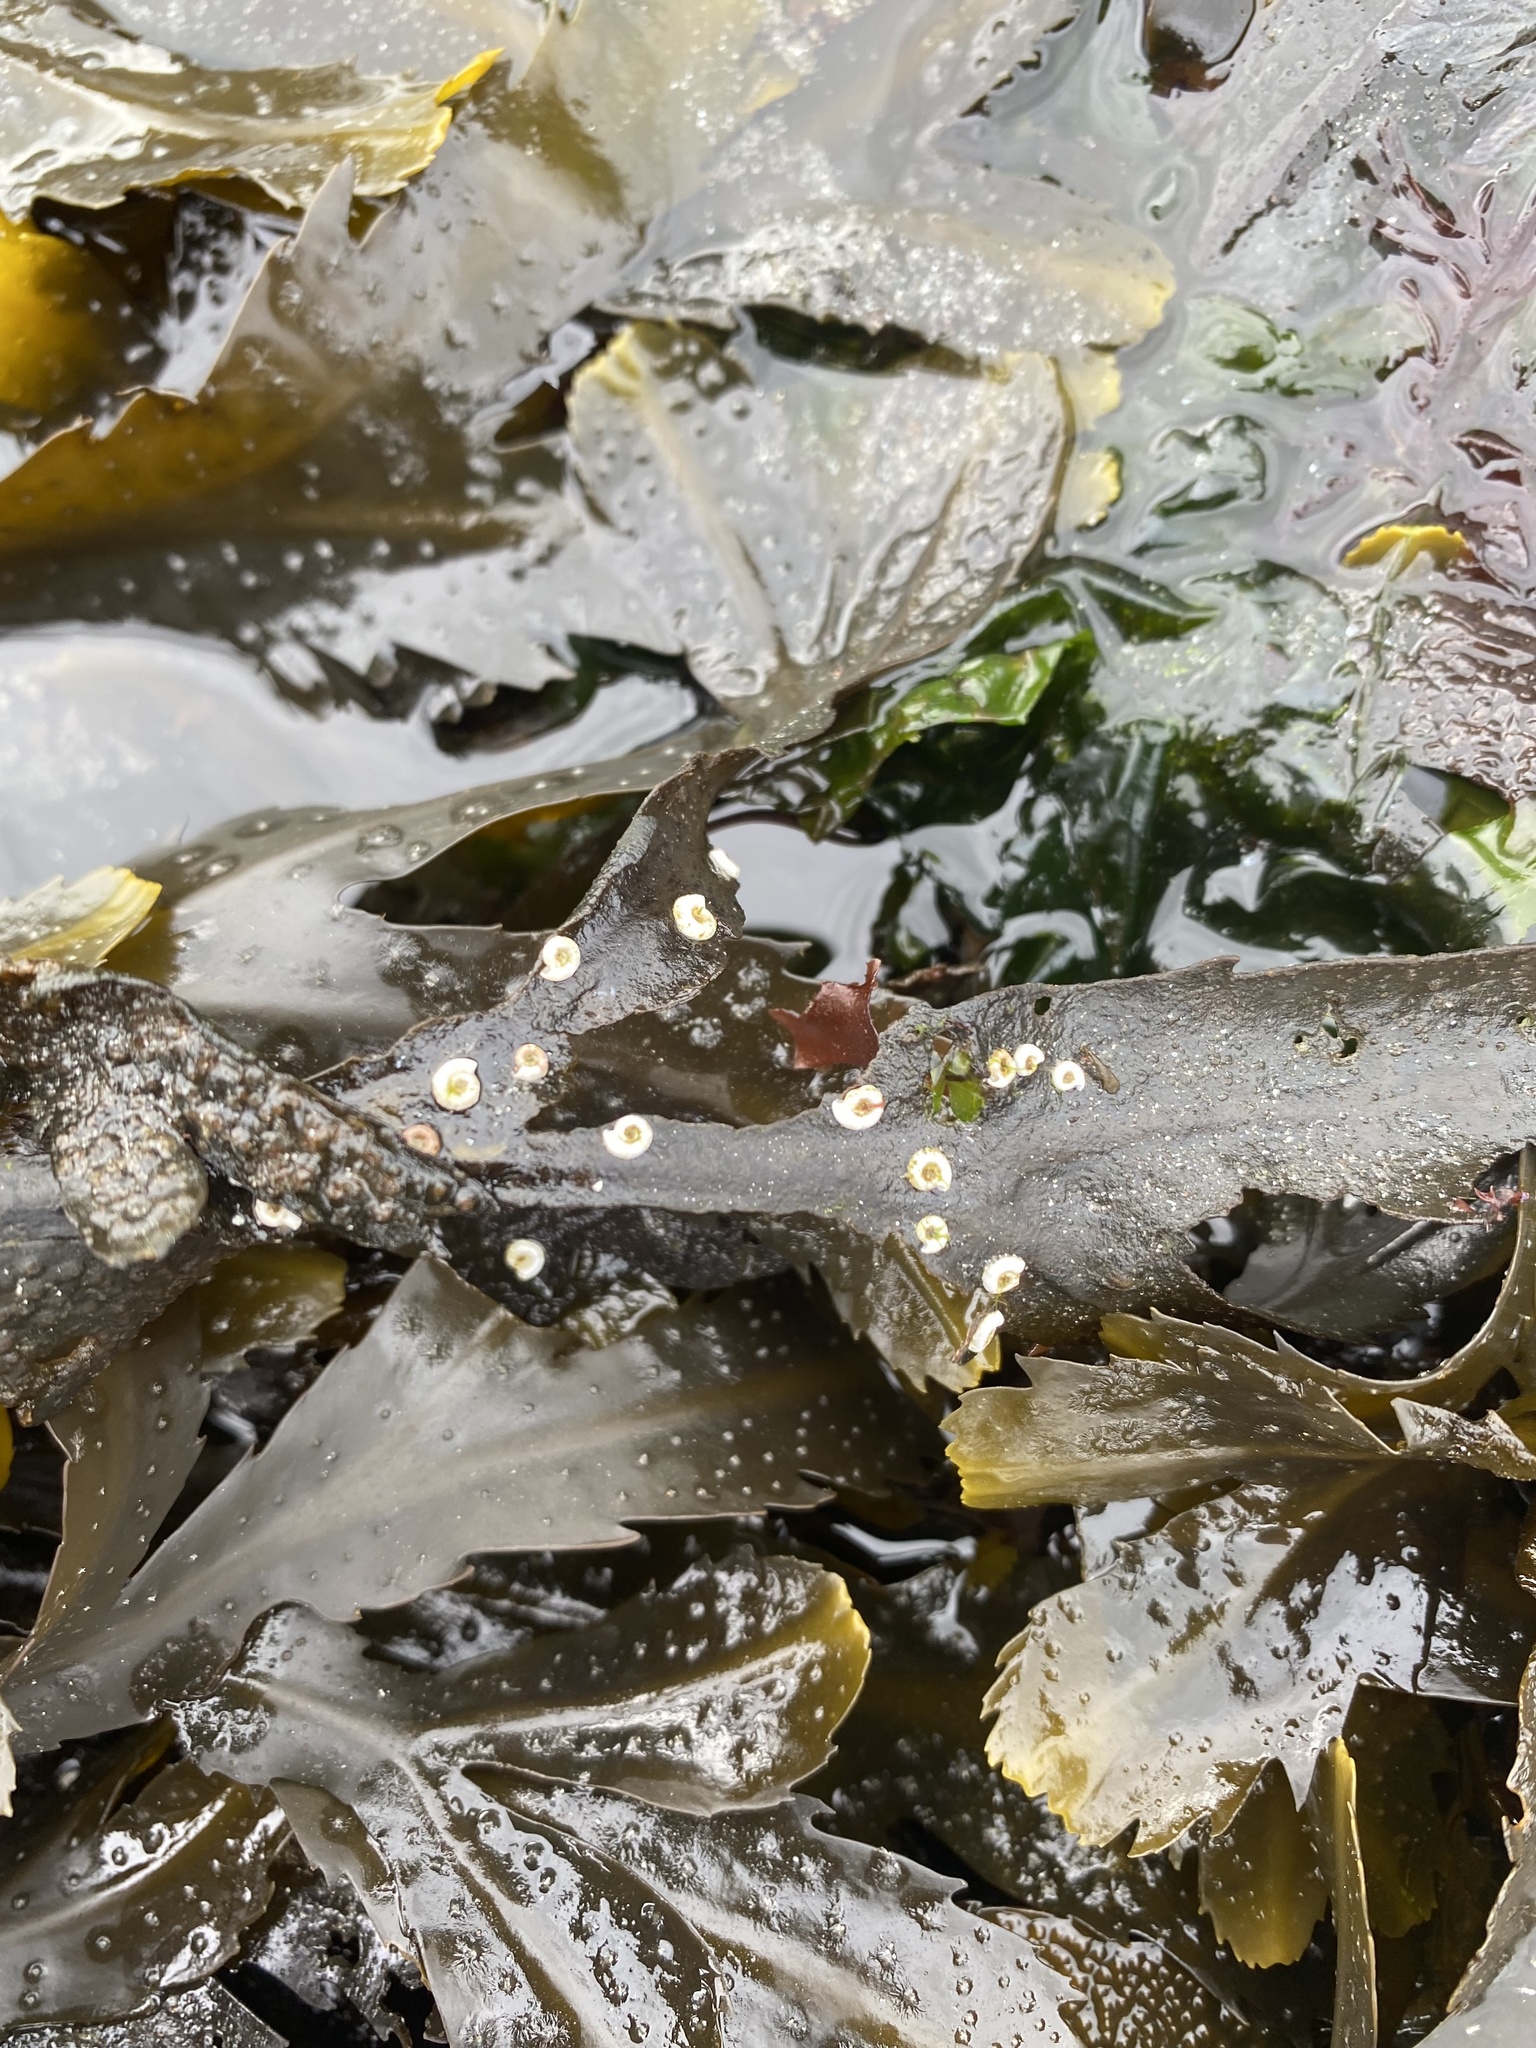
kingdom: Animalia
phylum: Annelida
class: Polychaeta
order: Sabellida
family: Serpulidae
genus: Spirorbis
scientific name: Spirorbis spirorbis
